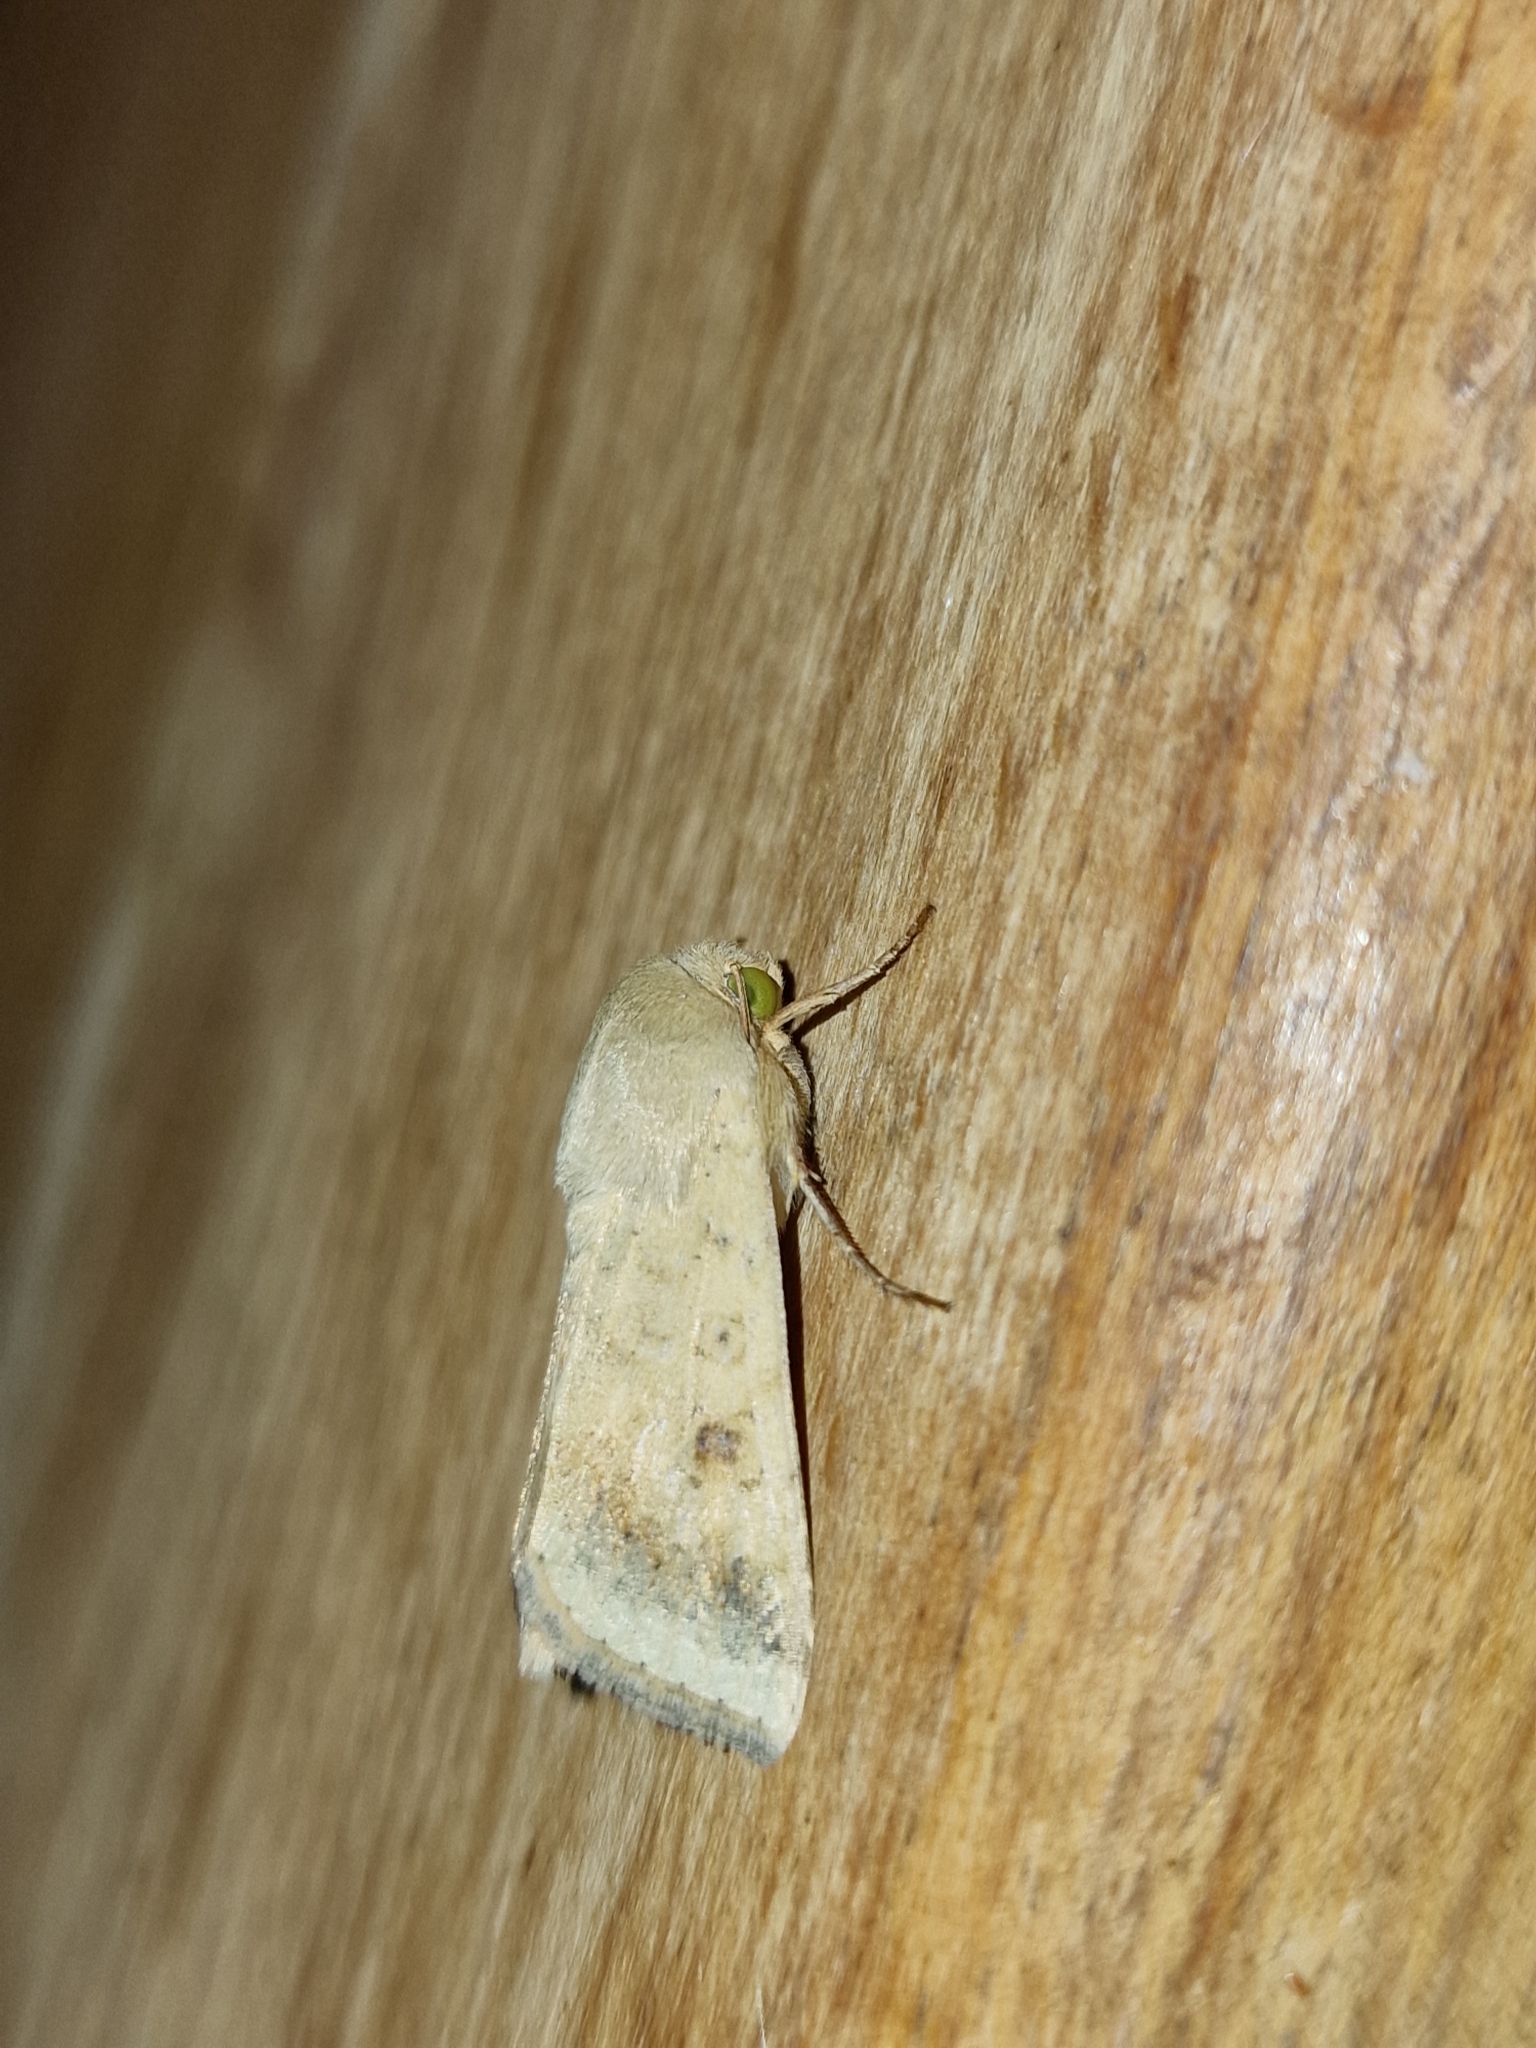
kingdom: Animalia
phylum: Arthropoda
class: Insecta
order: Lepidoptera
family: Noctuidae
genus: Helicoverpa
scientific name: Helicoverpa armigera
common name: Cotton bollworm
